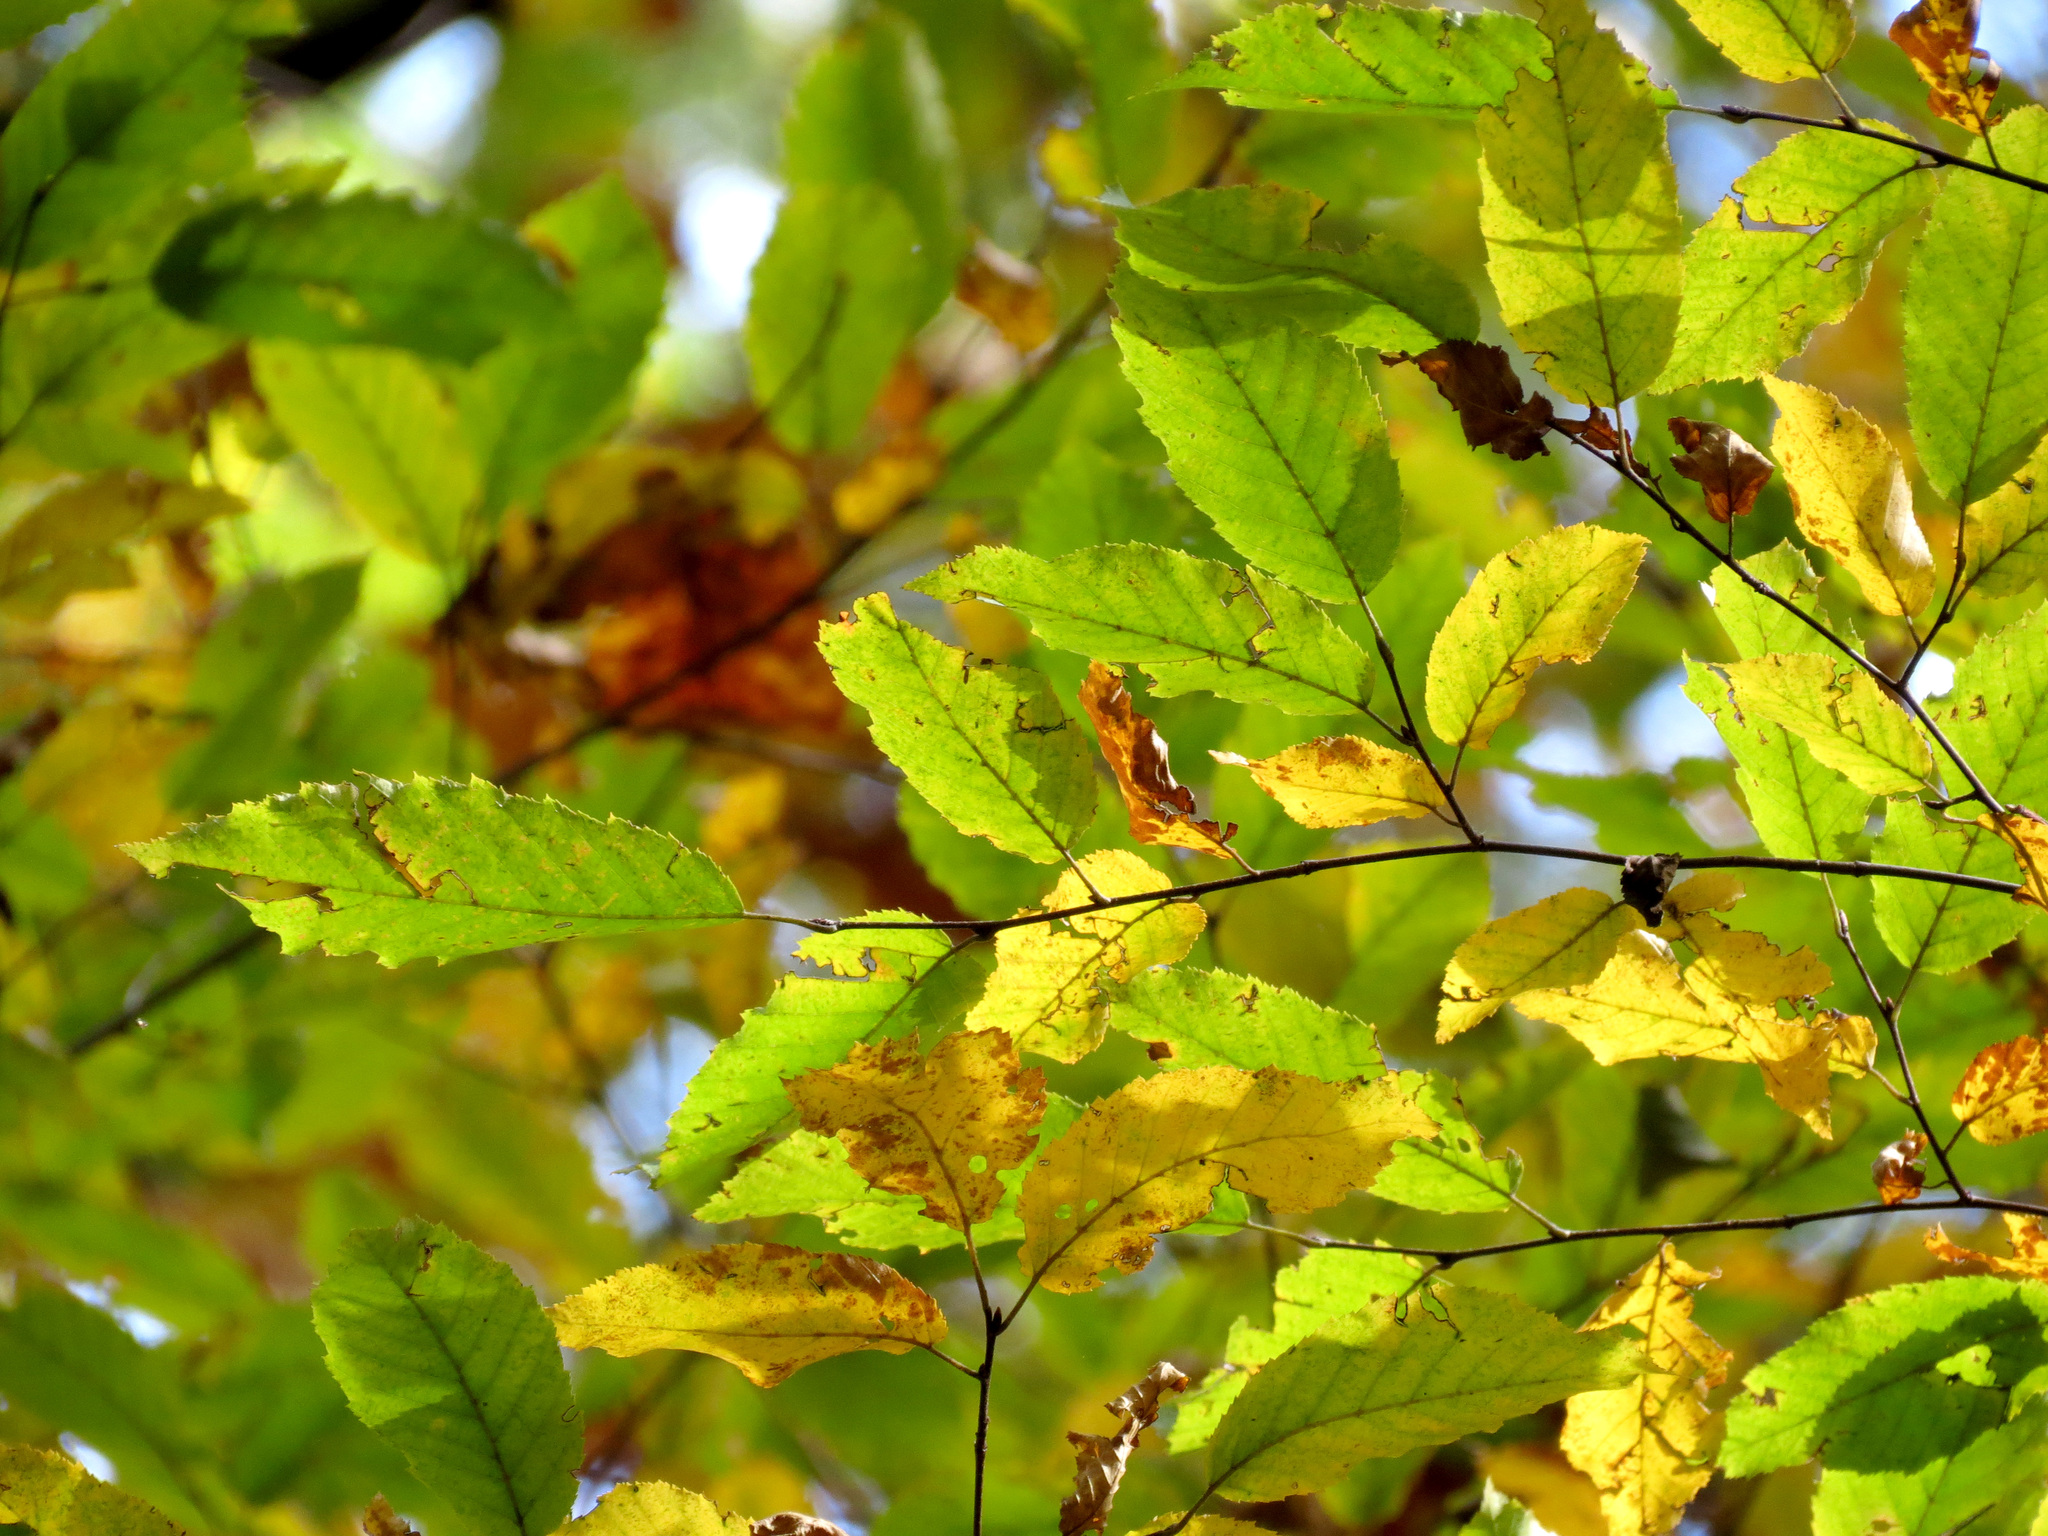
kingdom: Plantae
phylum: Tracheophyta
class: Magnoliopsida
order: Fagales
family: Betulaceae
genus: Carpinus
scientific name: Carpinus caroliniana
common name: American hornbeam
